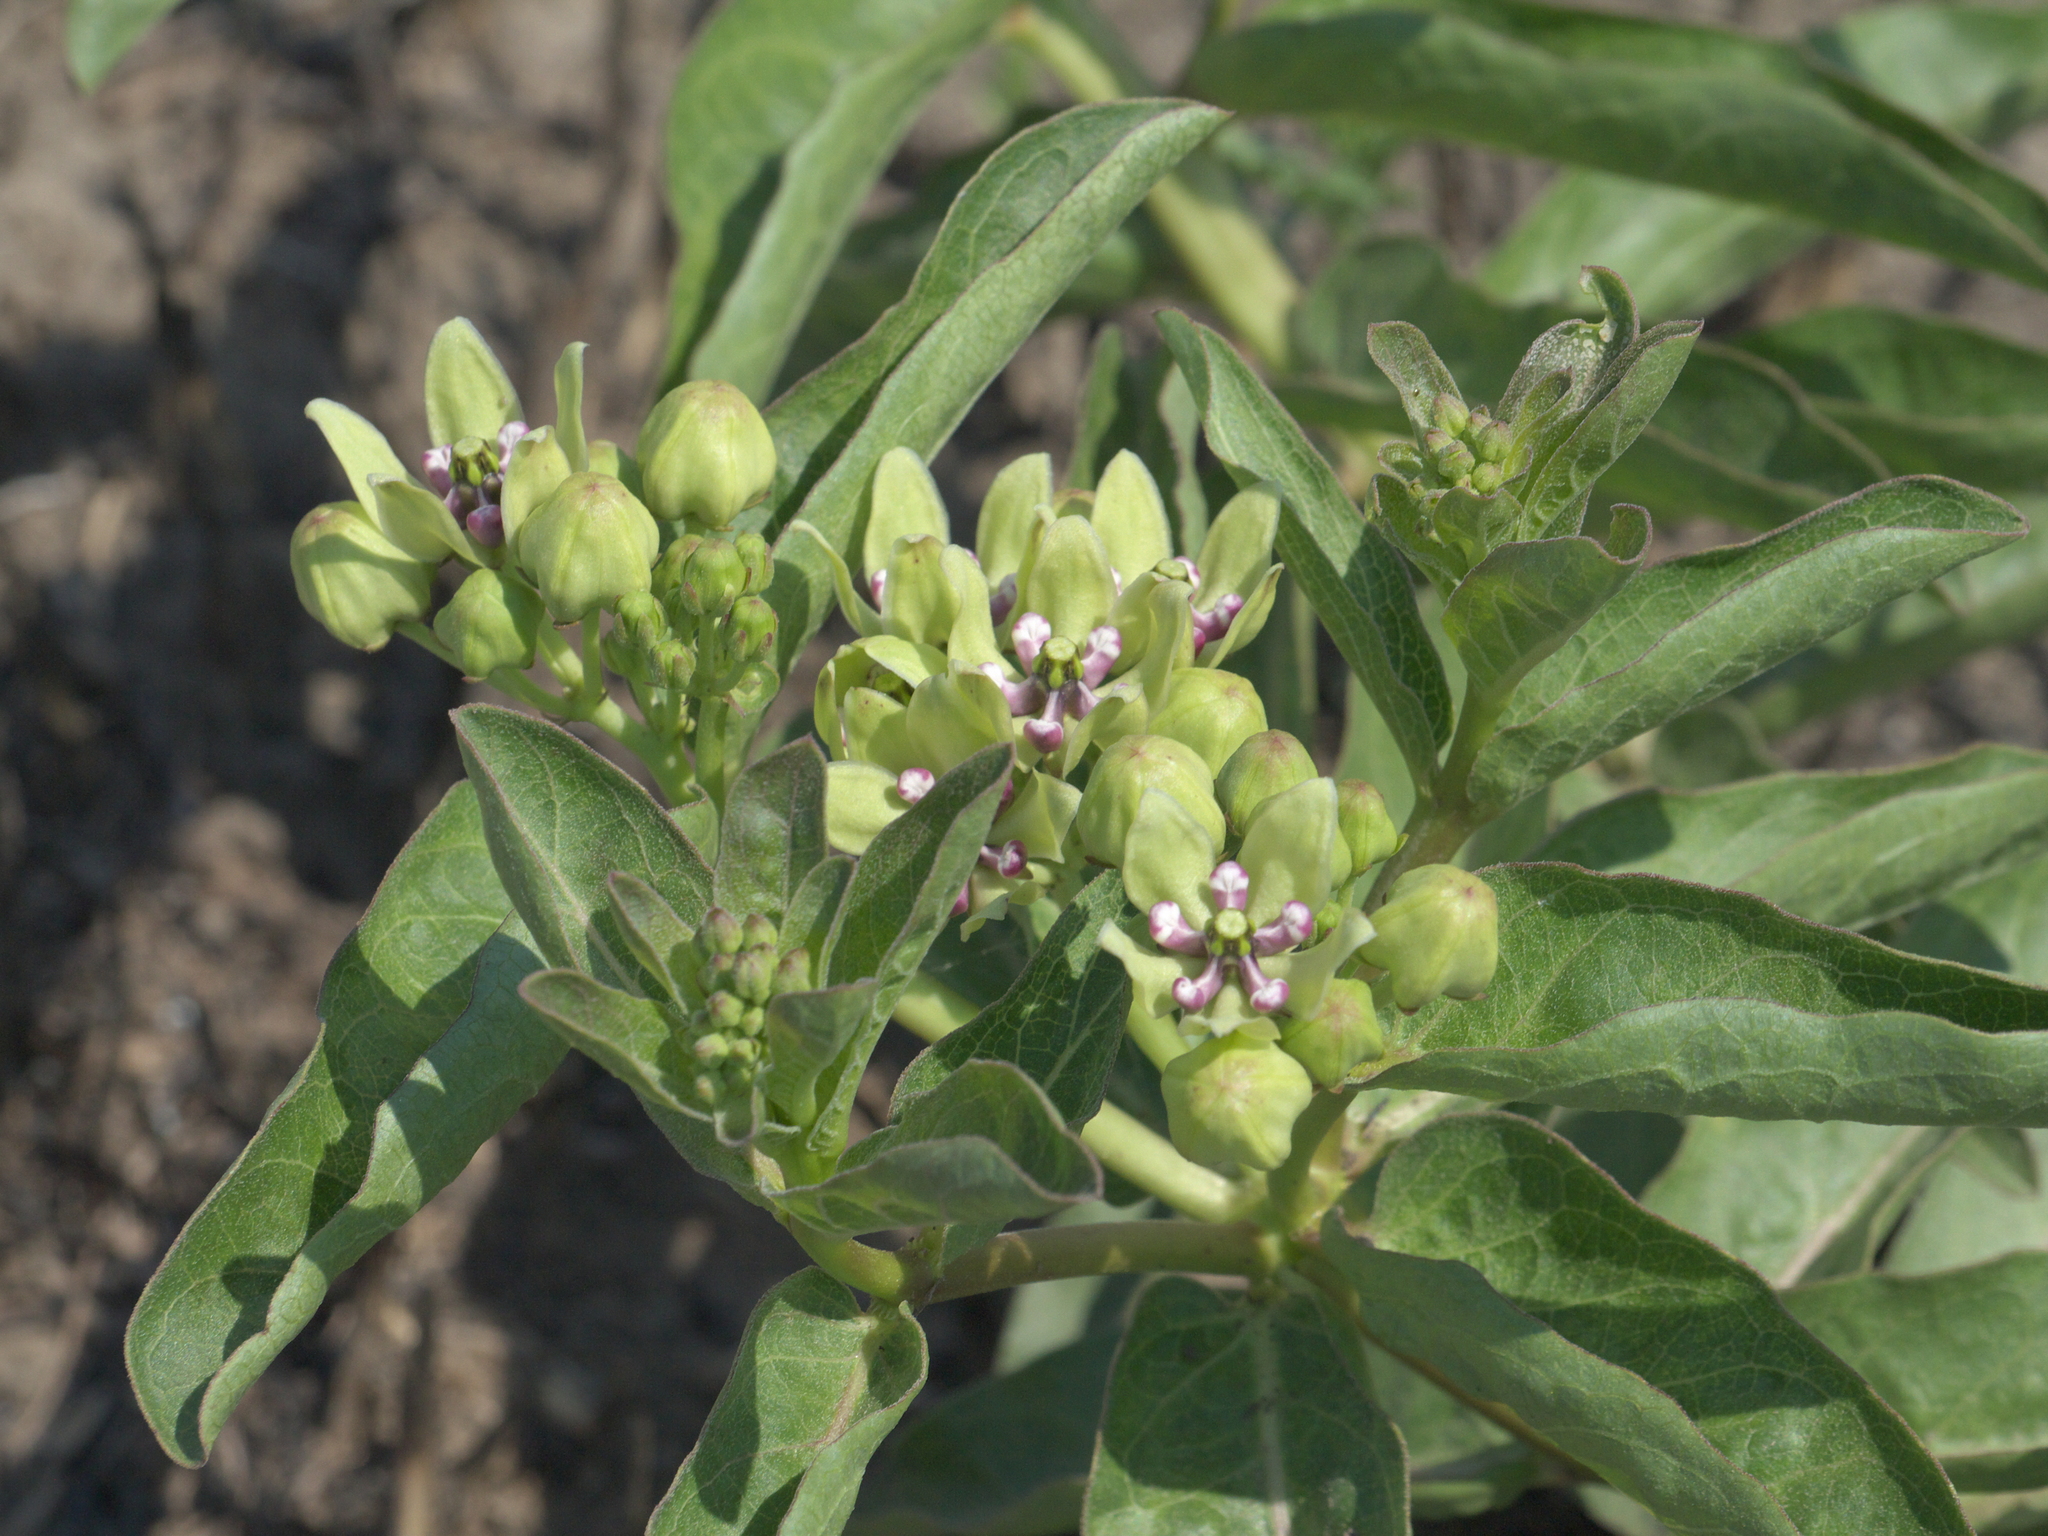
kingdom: Plantae
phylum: Tracheophyta
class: Magnoliopsida
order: Gentianales
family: Apocynaceae
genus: Asclepias
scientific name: Asclepias viridis
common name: Antelope-horns
